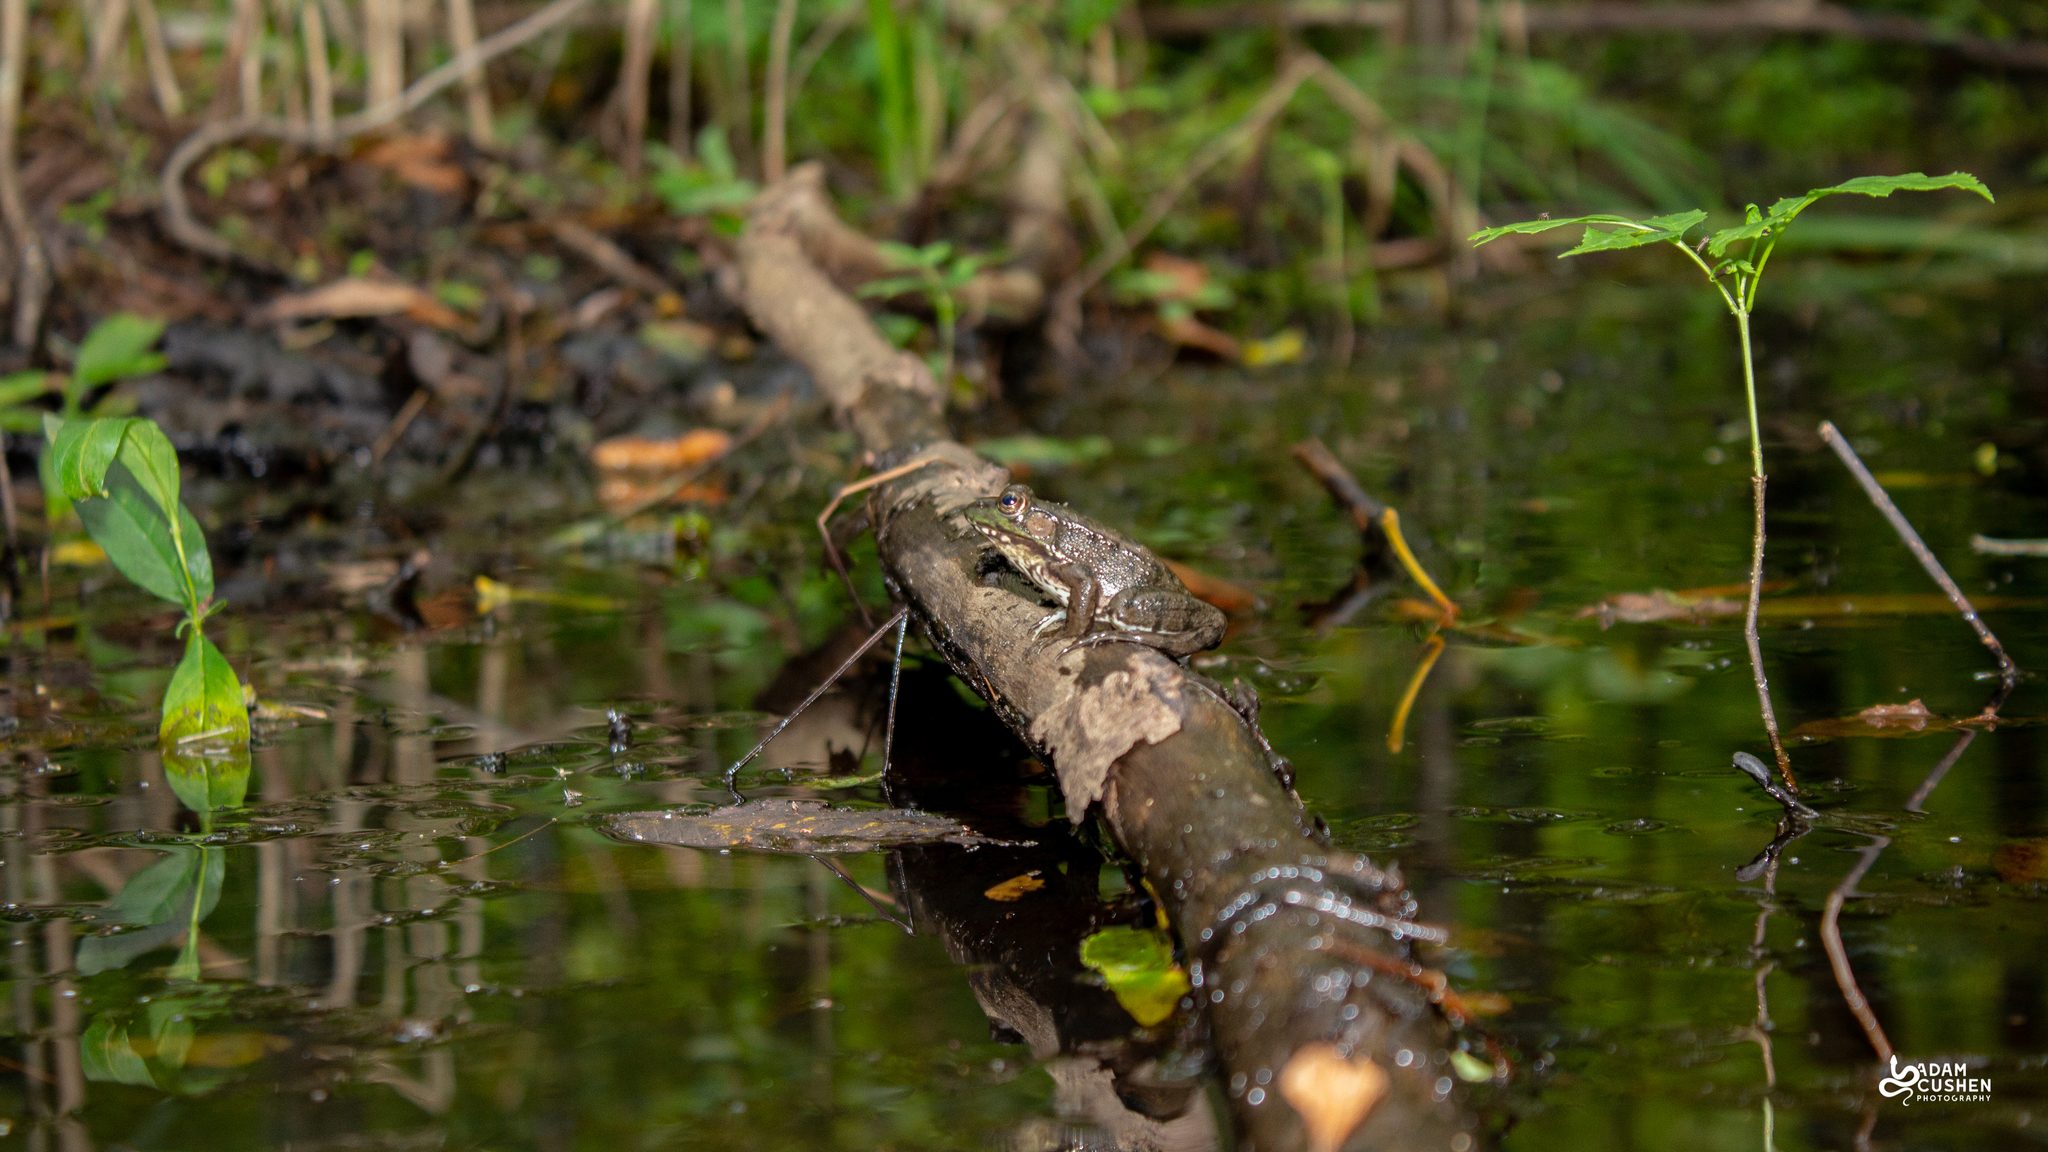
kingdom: Animalia
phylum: Chordata
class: Amphibia
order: Anura
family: Ranidae
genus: Lithobates
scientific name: Lithobates clamitans
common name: Green frog
